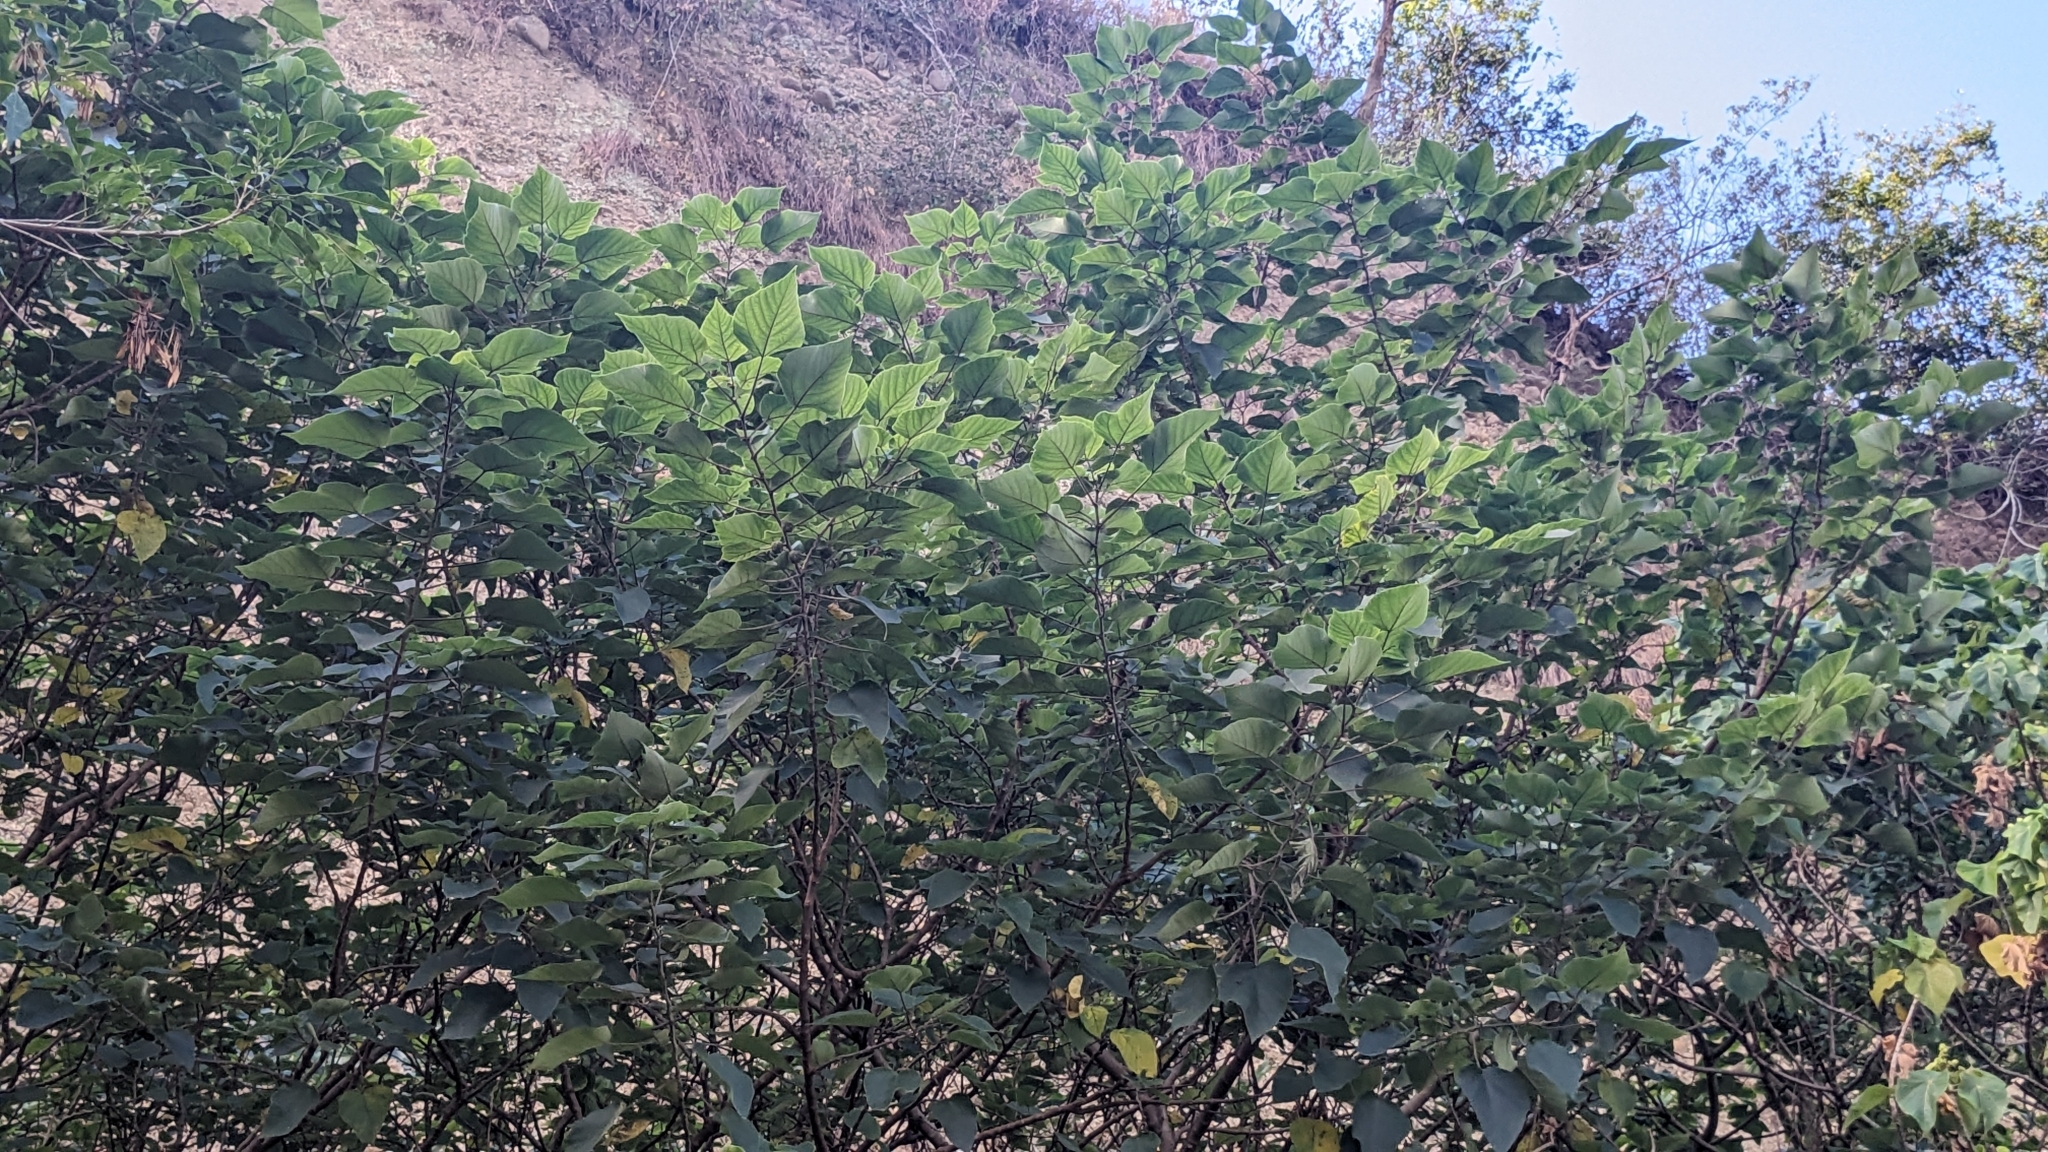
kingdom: Plantae
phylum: Tracheophyta
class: Magnoliopsida
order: Rosales
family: Moraceae
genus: Broussonetia
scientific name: Broussonetia papyrifera
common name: Paper mulberry
